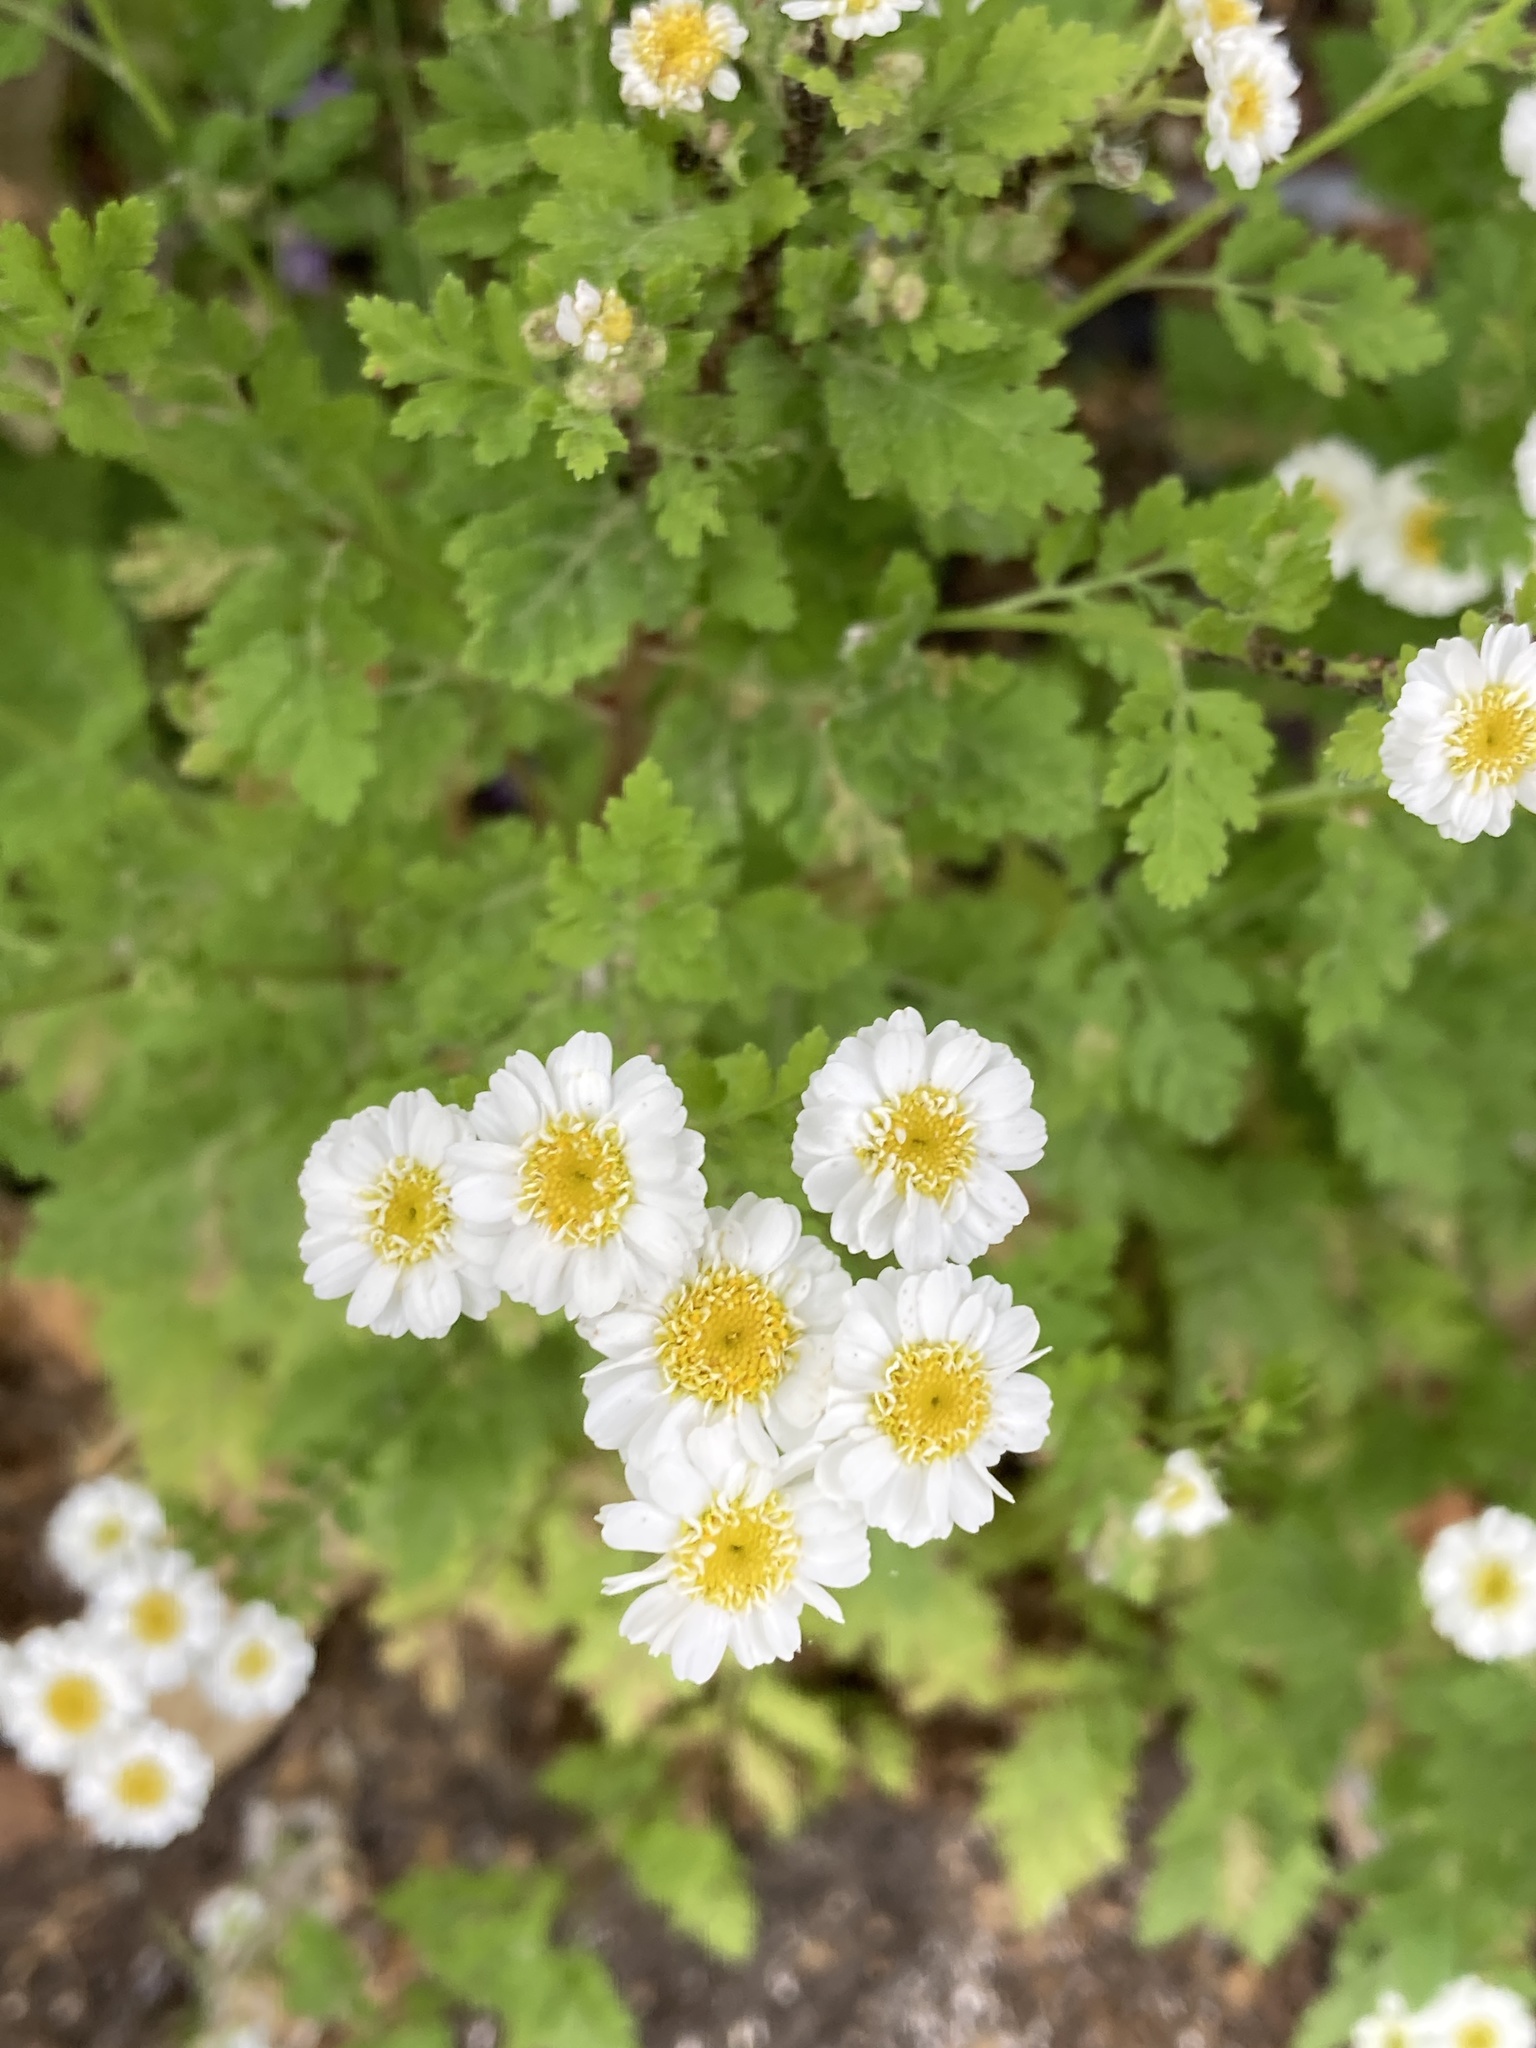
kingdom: Plantae
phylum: Tracheophyta
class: Magnoliopsida
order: Asterales
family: Asteraceae
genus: Tanacetum
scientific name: Tanacetum parthenium
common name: Feverfew
